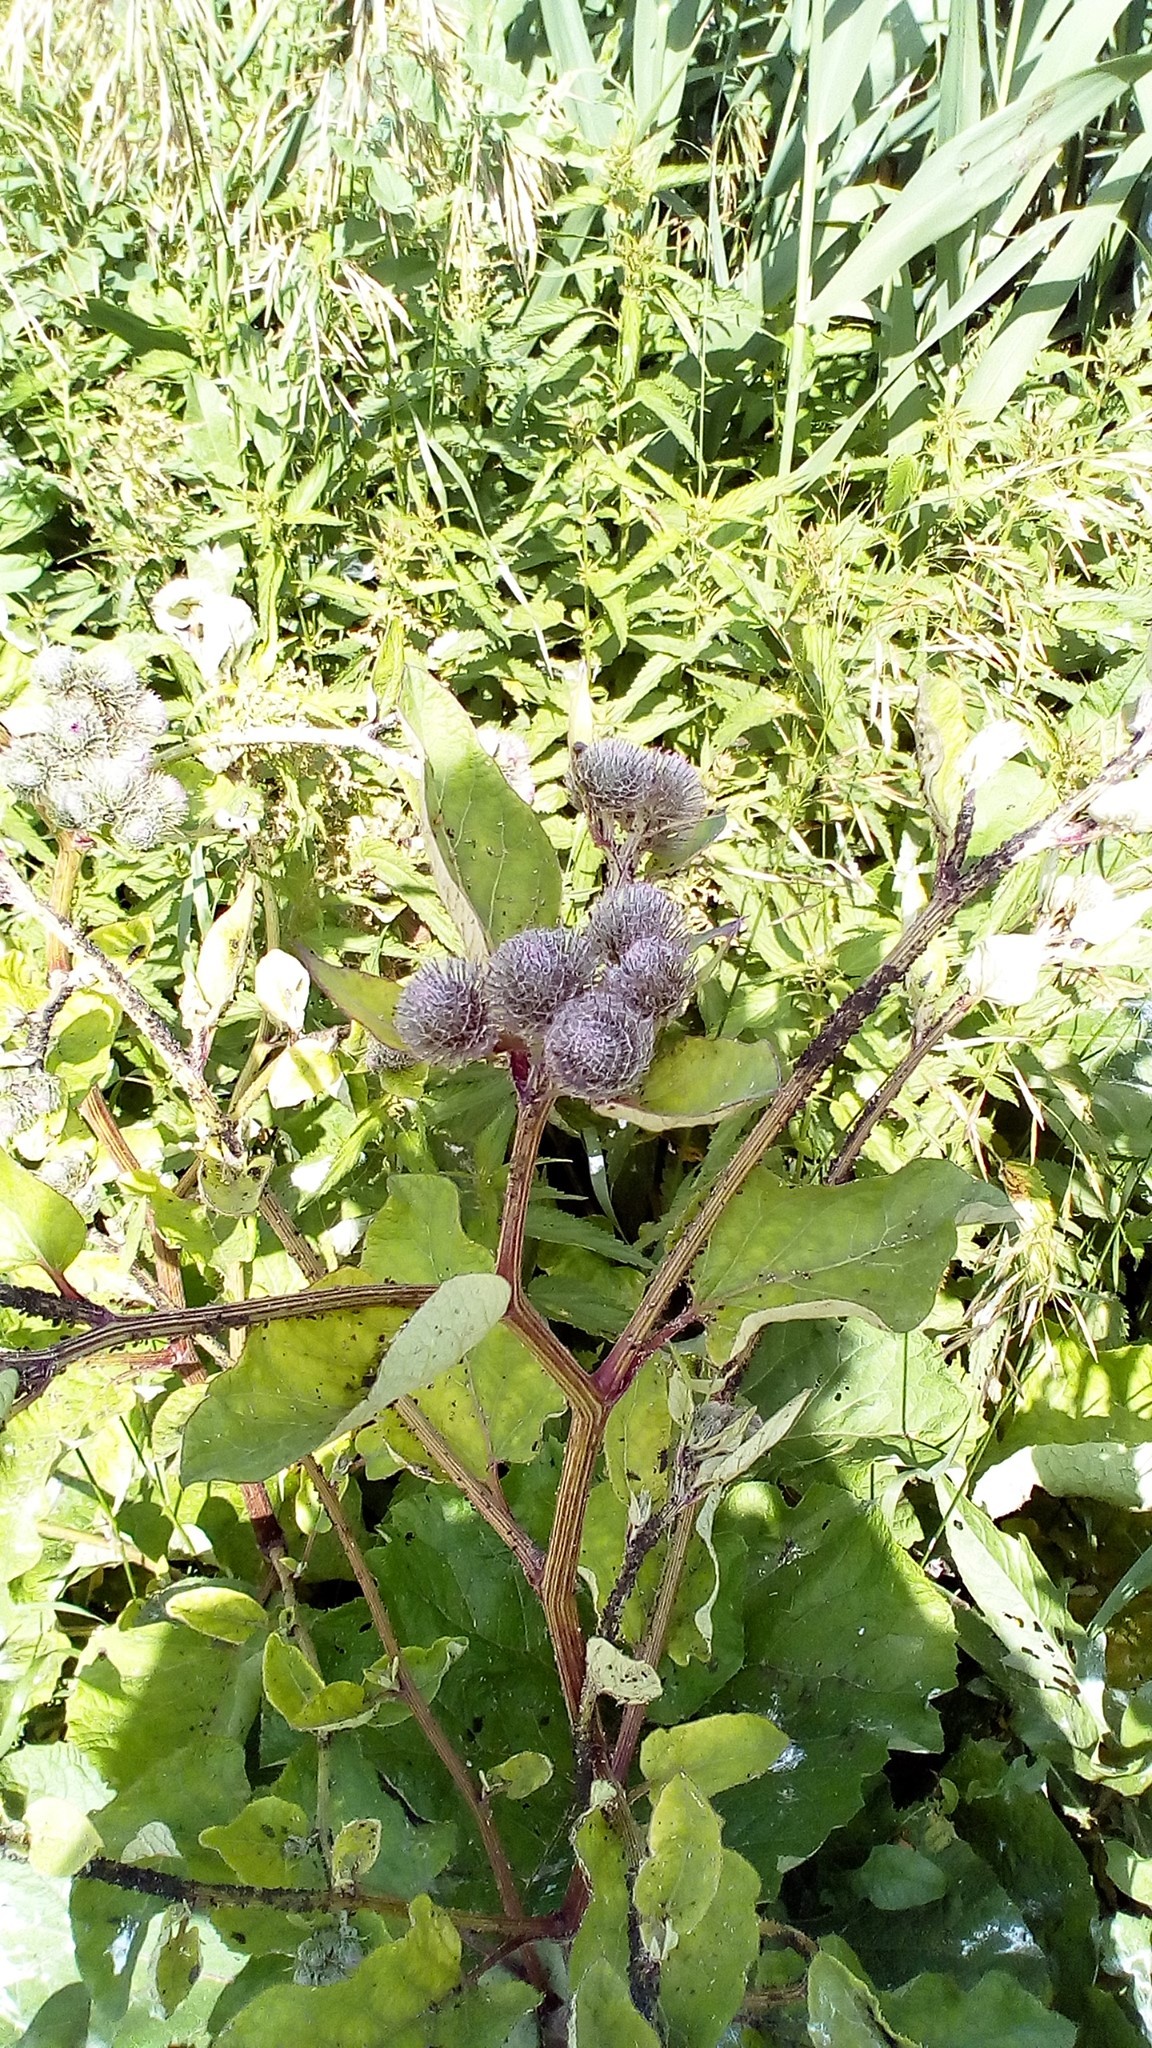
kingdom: Plantae
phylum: Tracheophyta
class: Magnoliopsida
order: Asterales
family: Asteraceae
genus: Arctium
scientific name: Arctium tomentosum
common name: Woolly burdock
